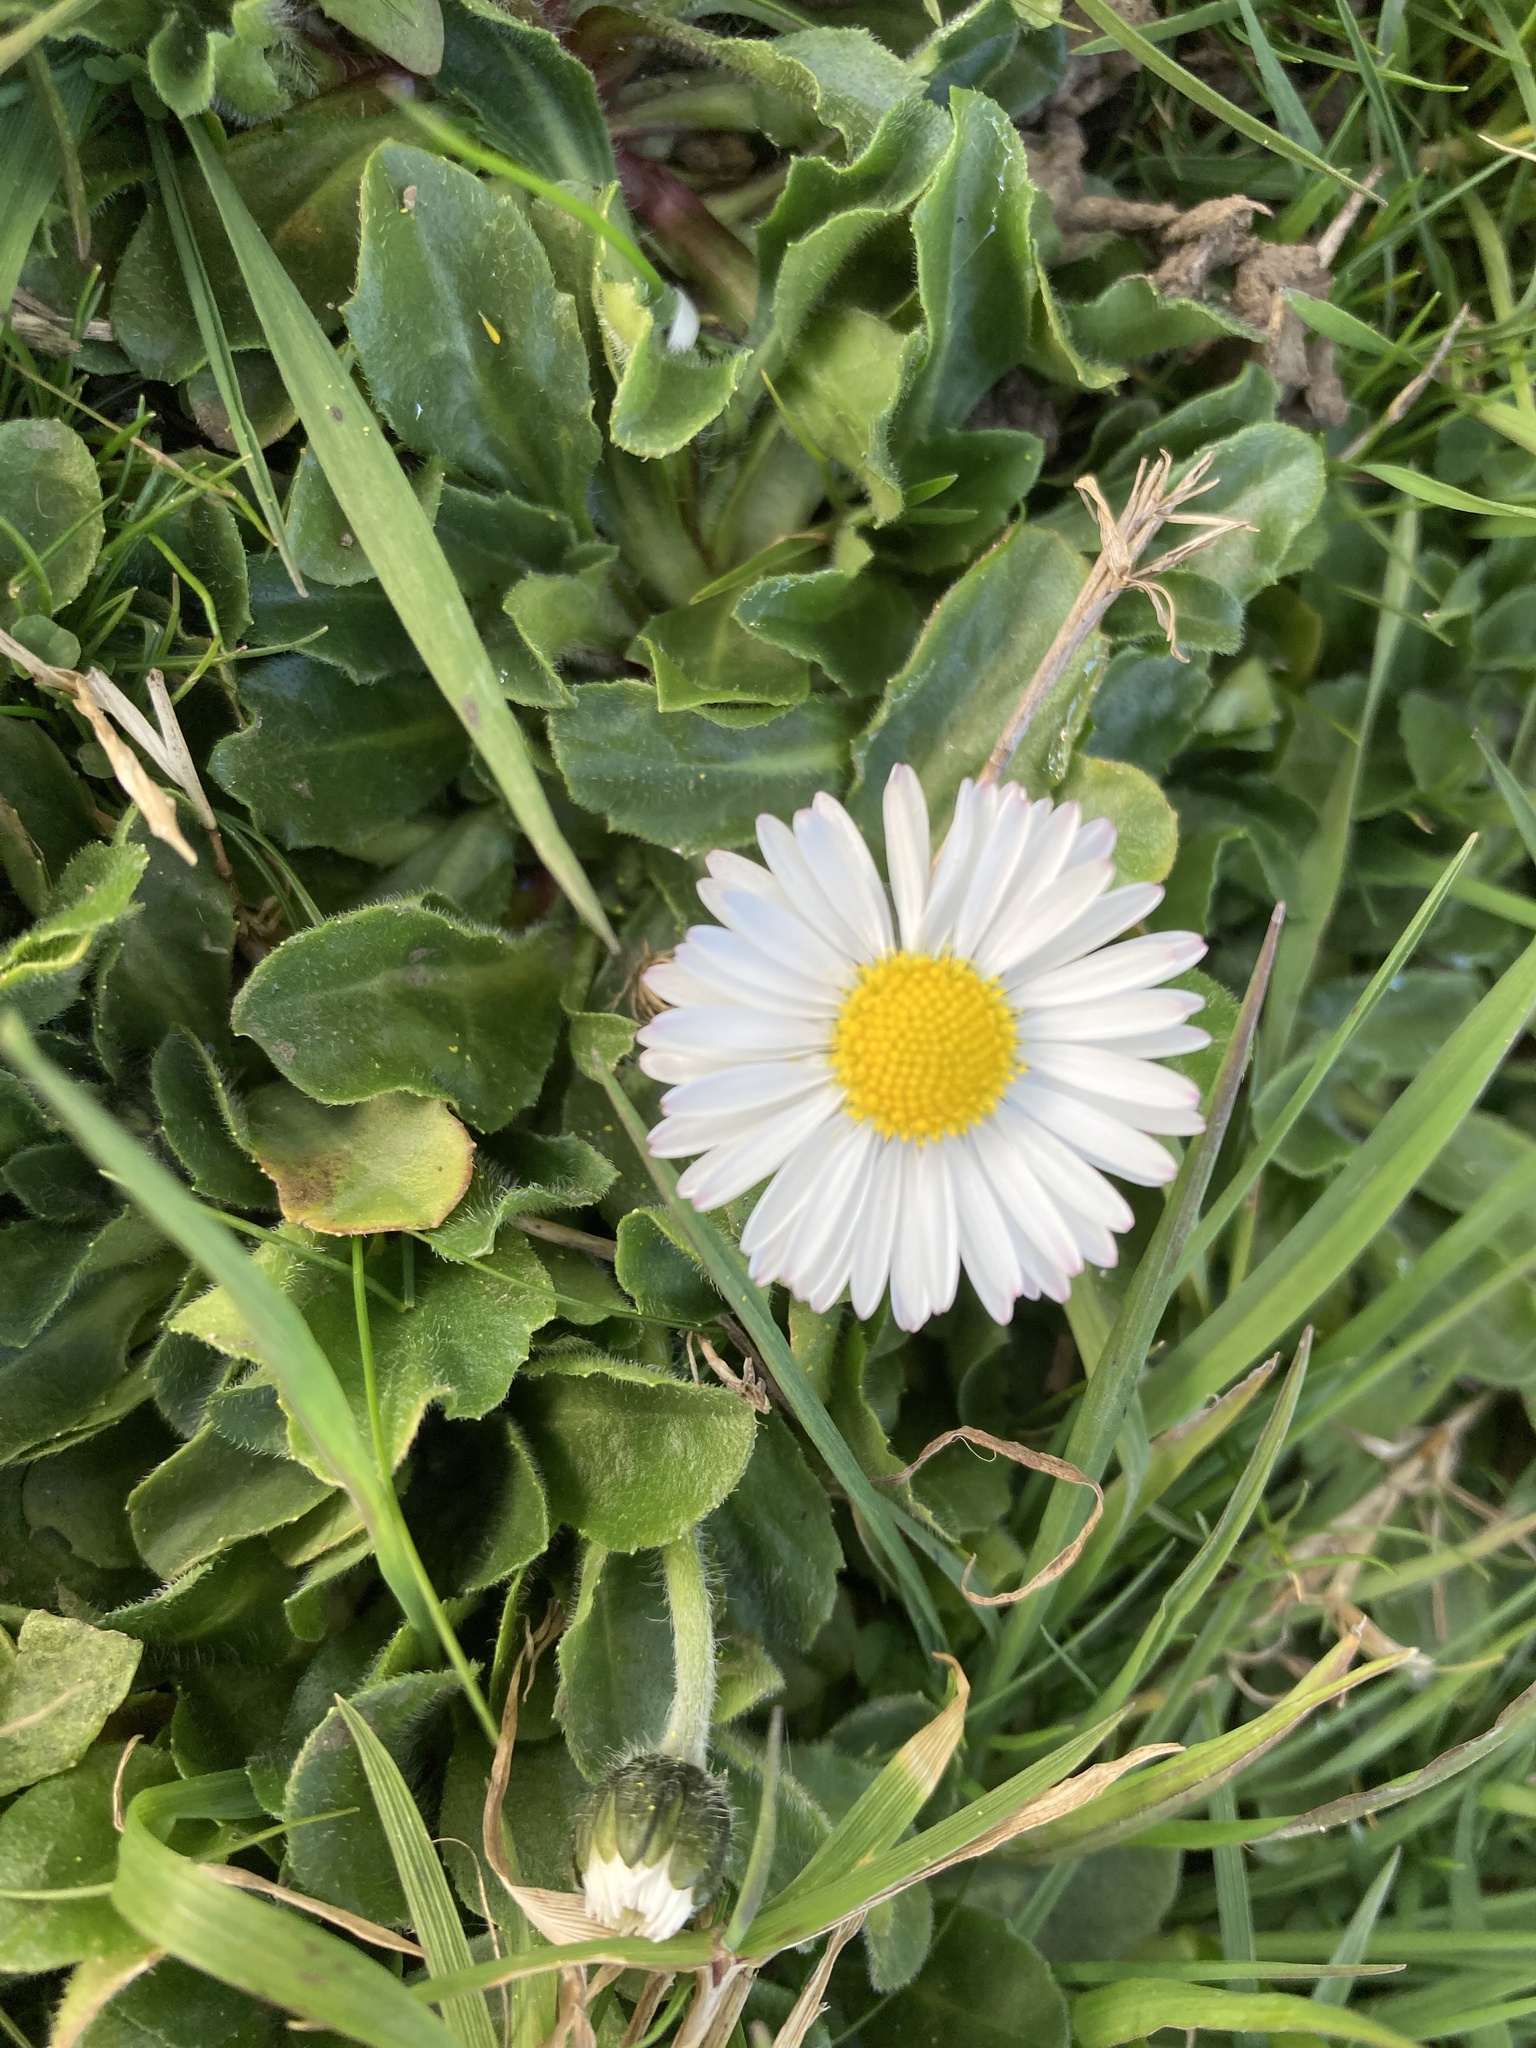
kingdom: Plantae
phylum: Tracheophyta
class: Magnoliopsida
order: Asterales
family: Asteraceae
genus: Bellis
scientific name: Bellis perennis
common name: Lawndaisy
